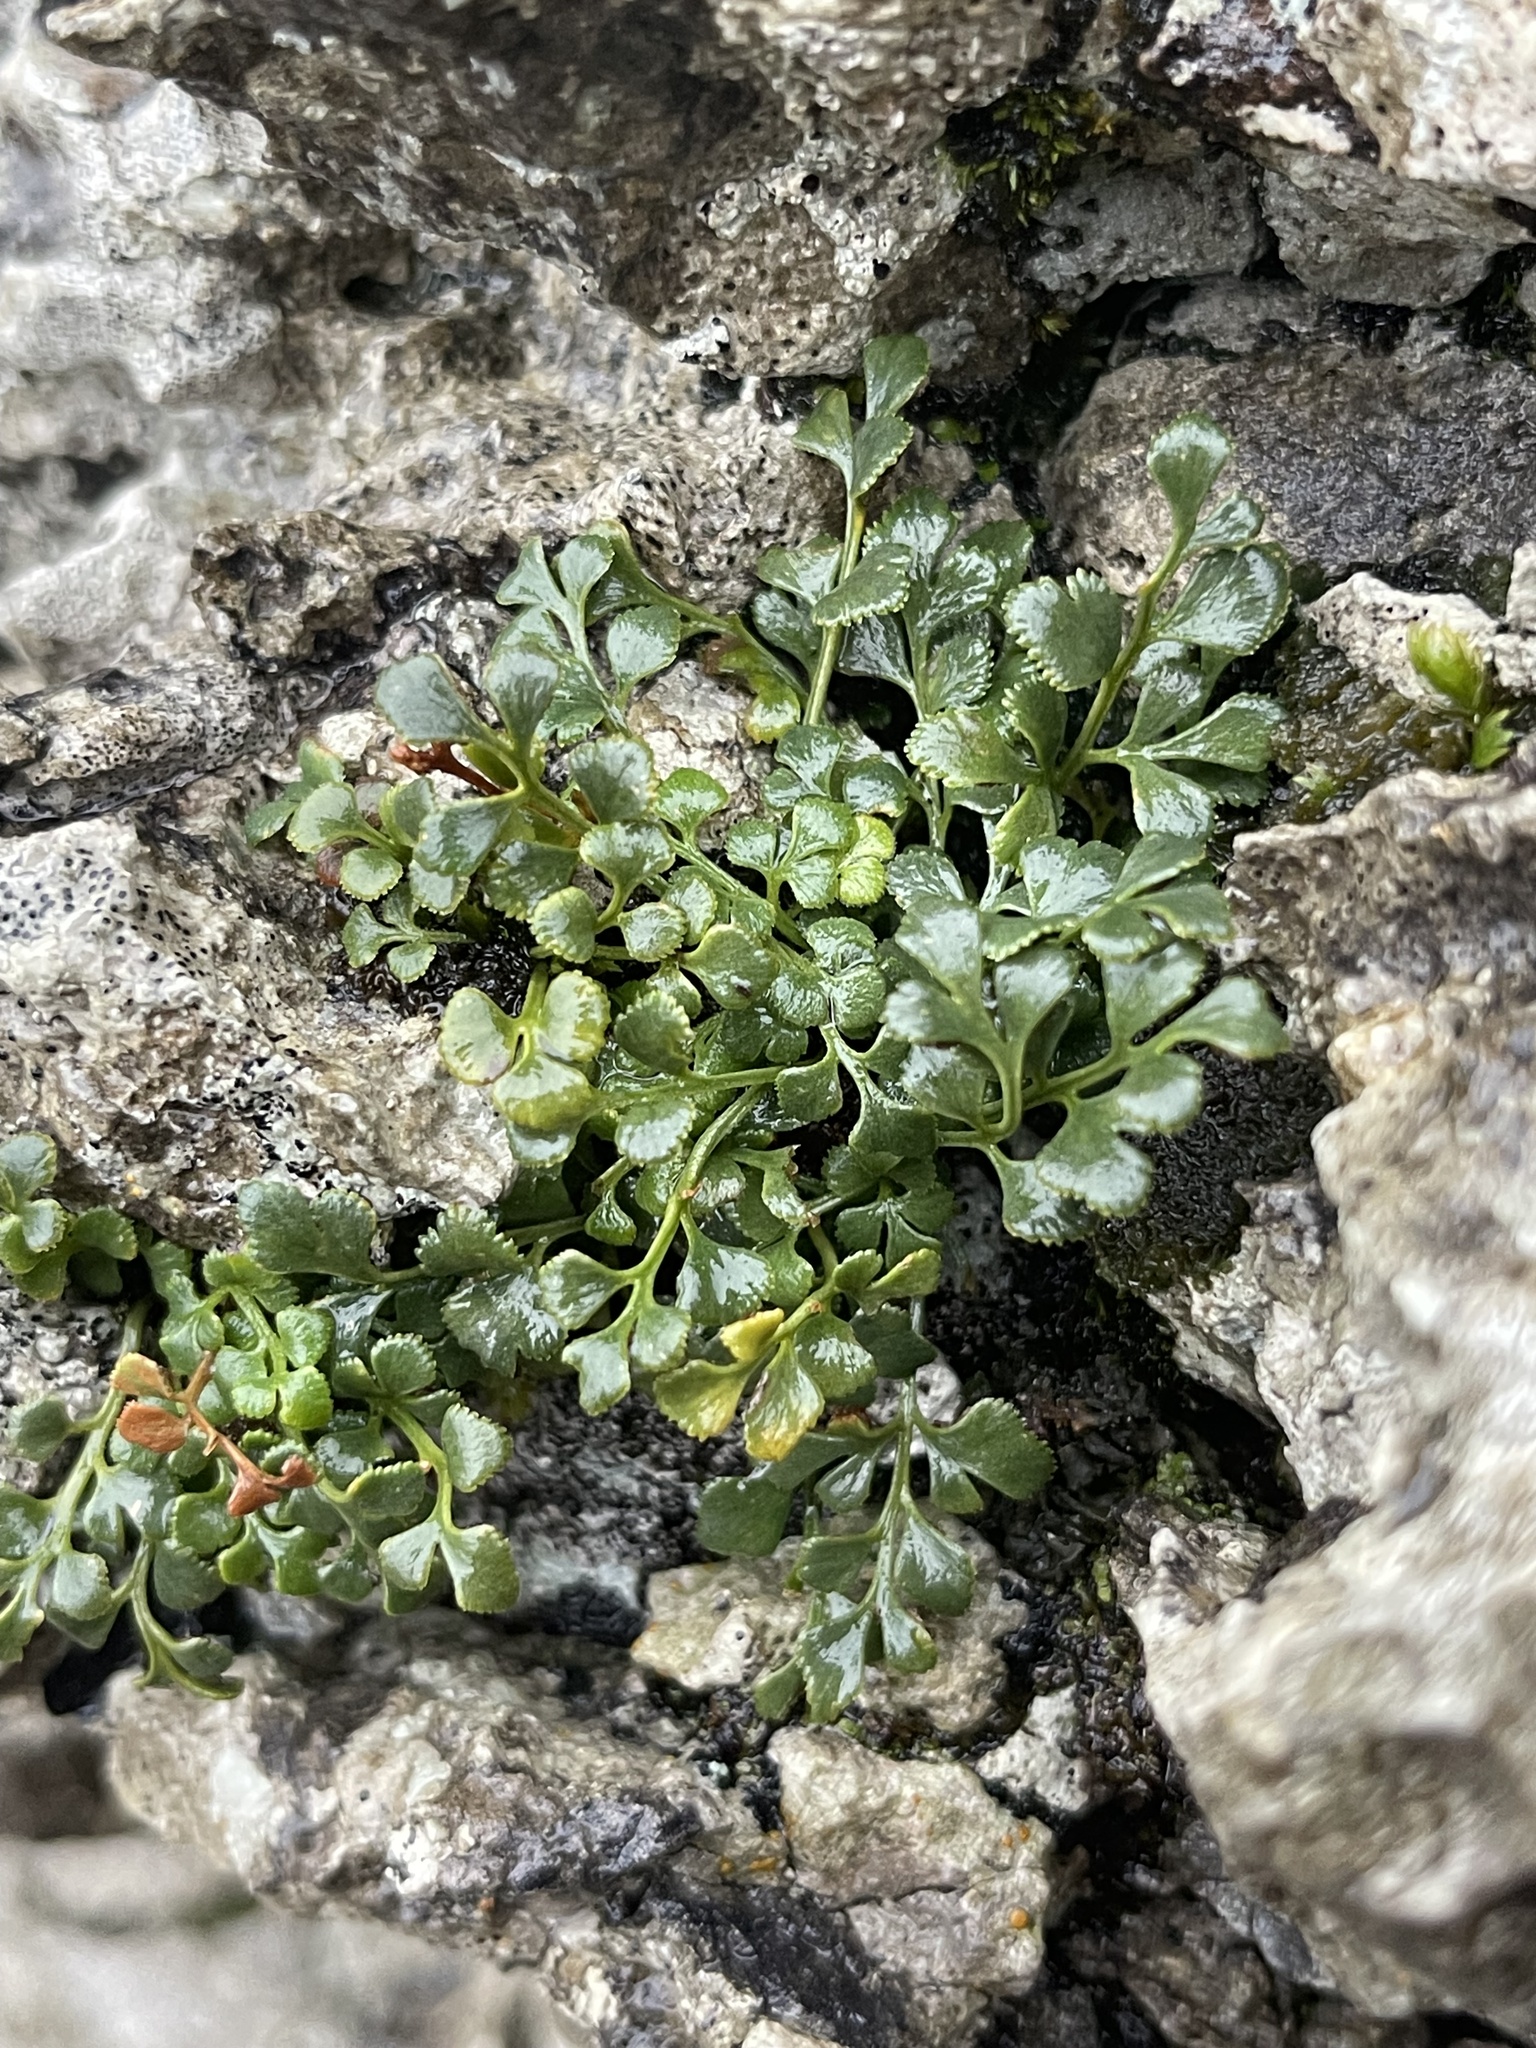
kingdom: Plantae
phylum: Tracheophyta
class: Polypodiopsida
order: Polypodiales
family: Aspleniaceae
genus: Asplenium
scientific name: Asplenium ruta-muraria
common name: Wall-rue
